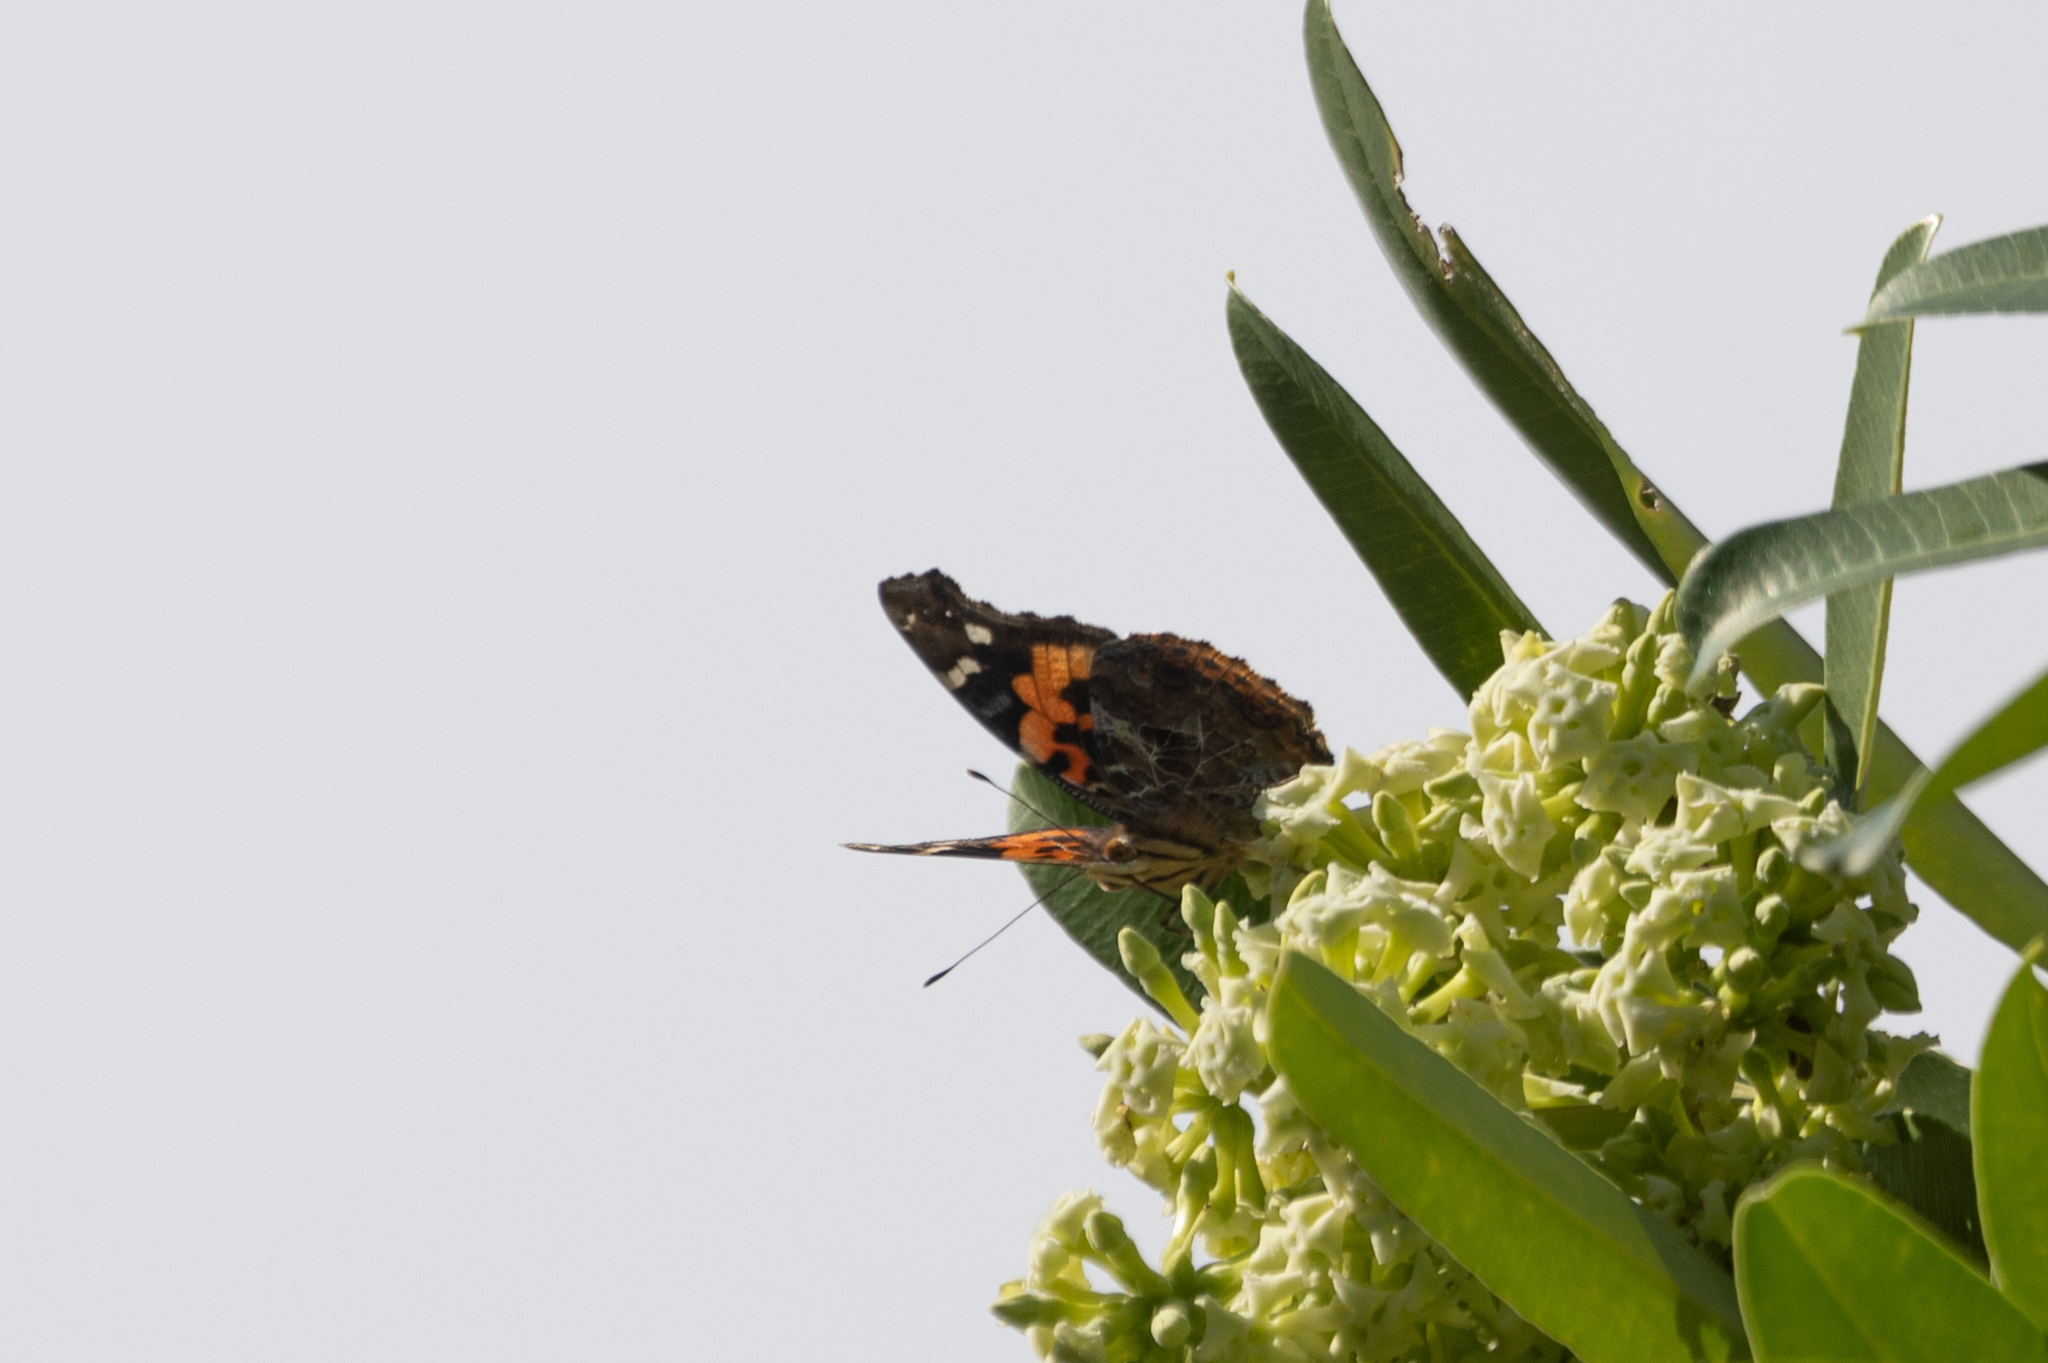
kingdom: Animalia
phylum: Arthropoda
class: Insecta
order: Lepidoptera
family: Nymphalidae
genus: Vanessa
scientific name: Vanessa indica
